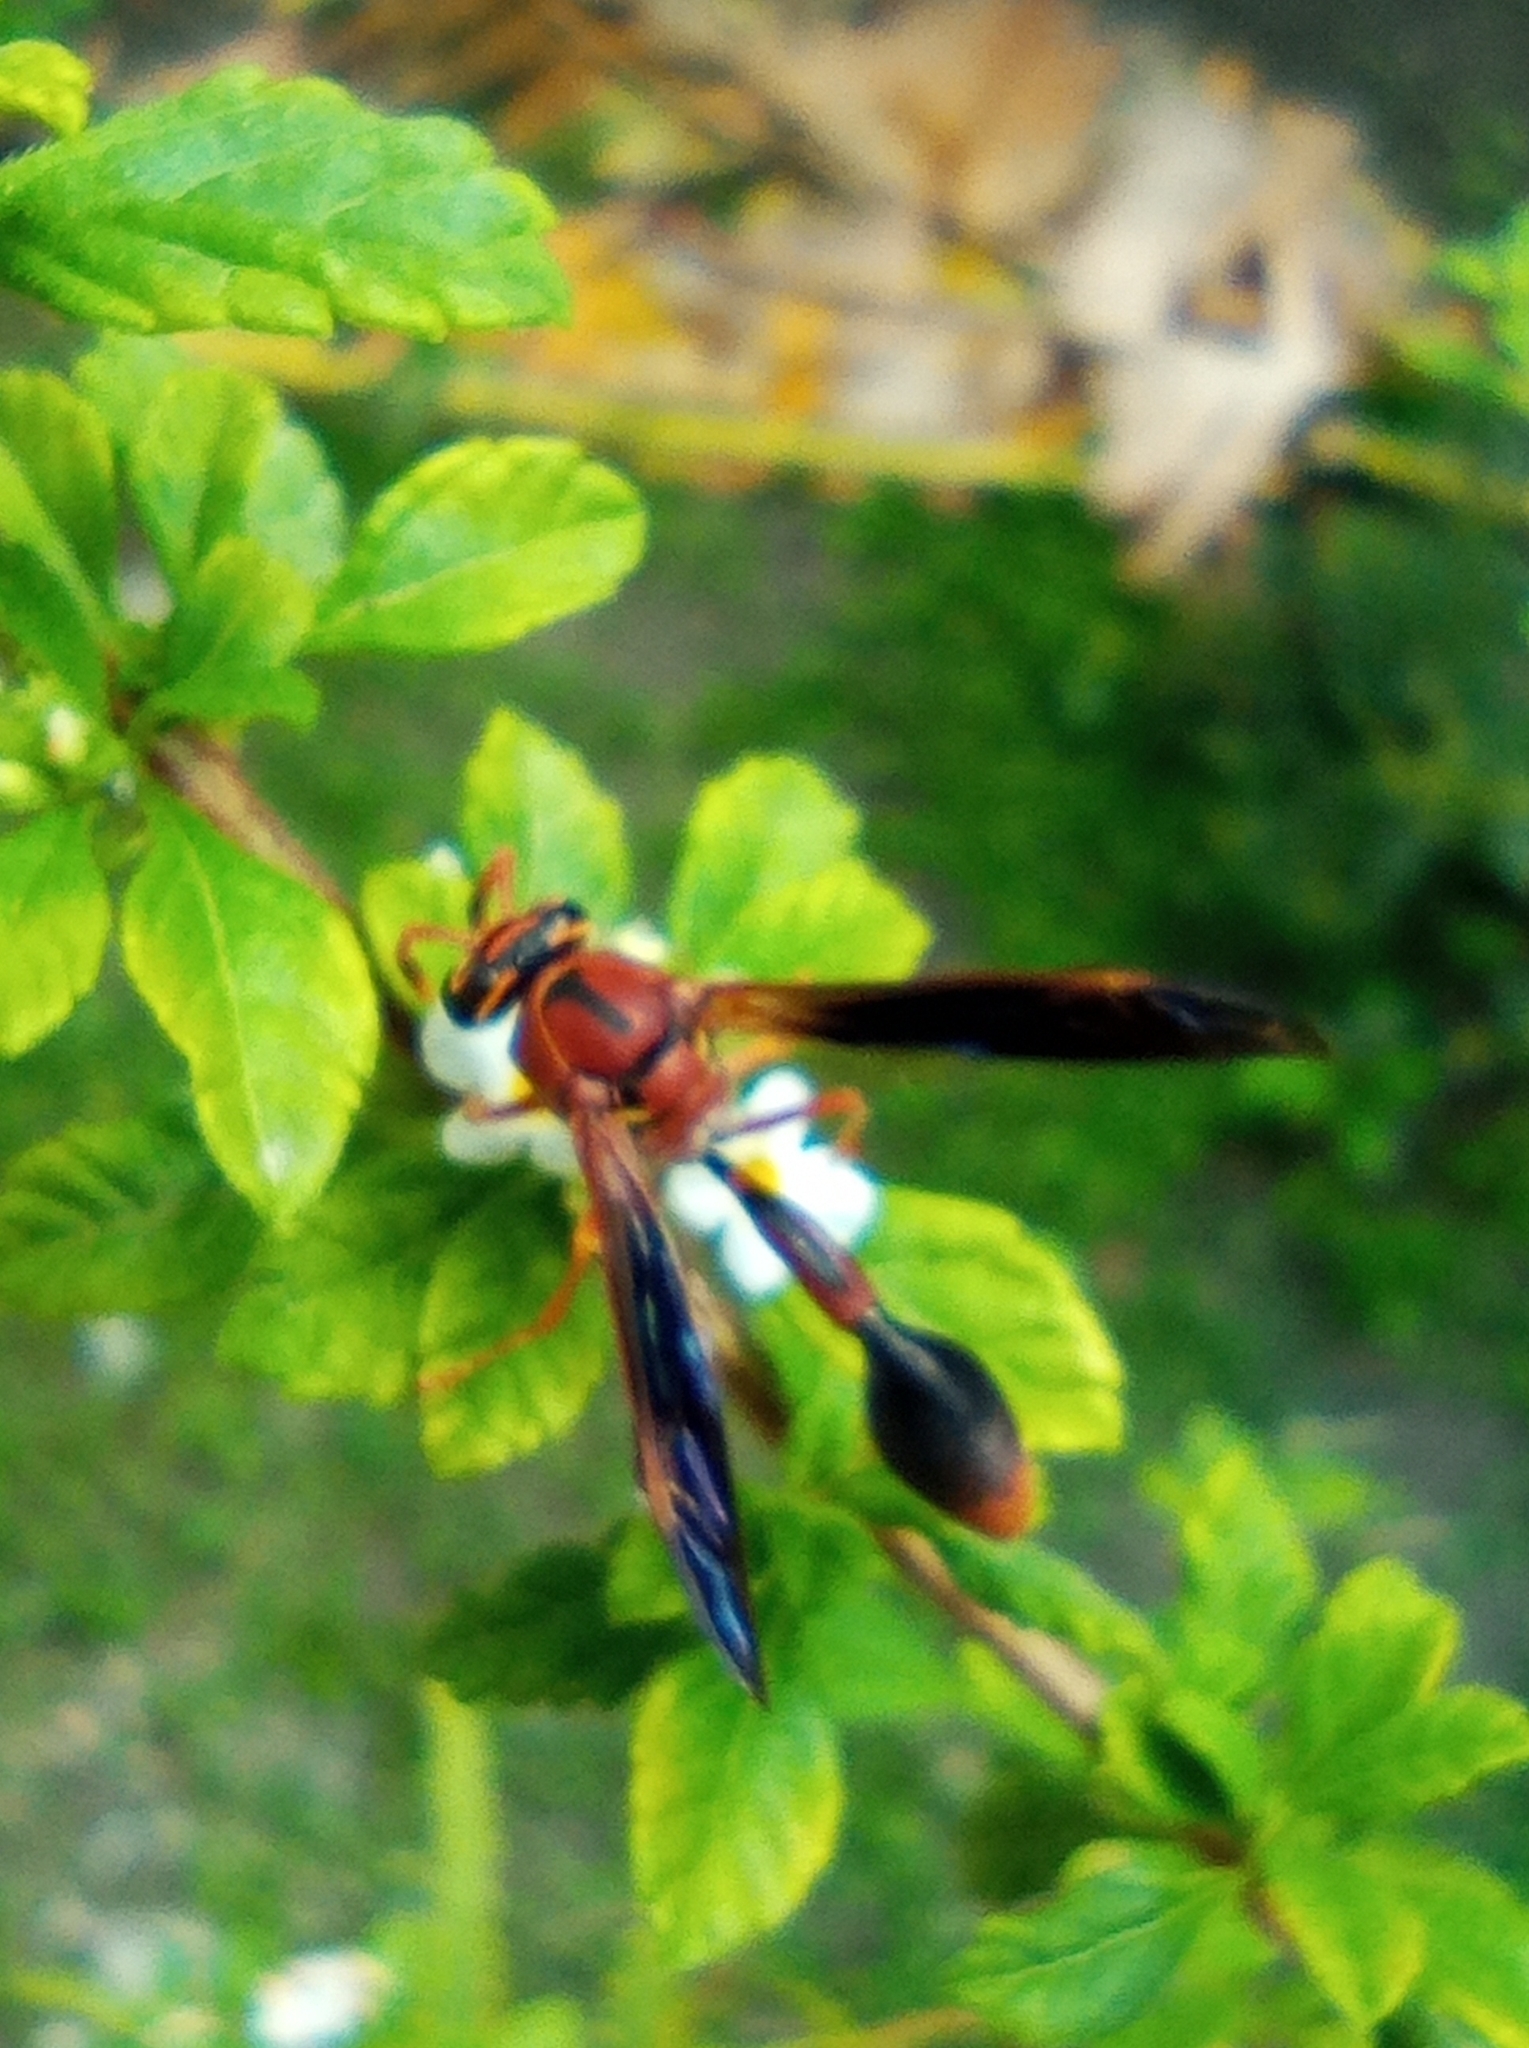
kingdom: Animalia
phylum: Arthropoda
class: Insecta
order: Hymenoptera
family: Eumenidae
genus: Zeta
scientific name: Zeta argillaceum
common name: Potter wasp
